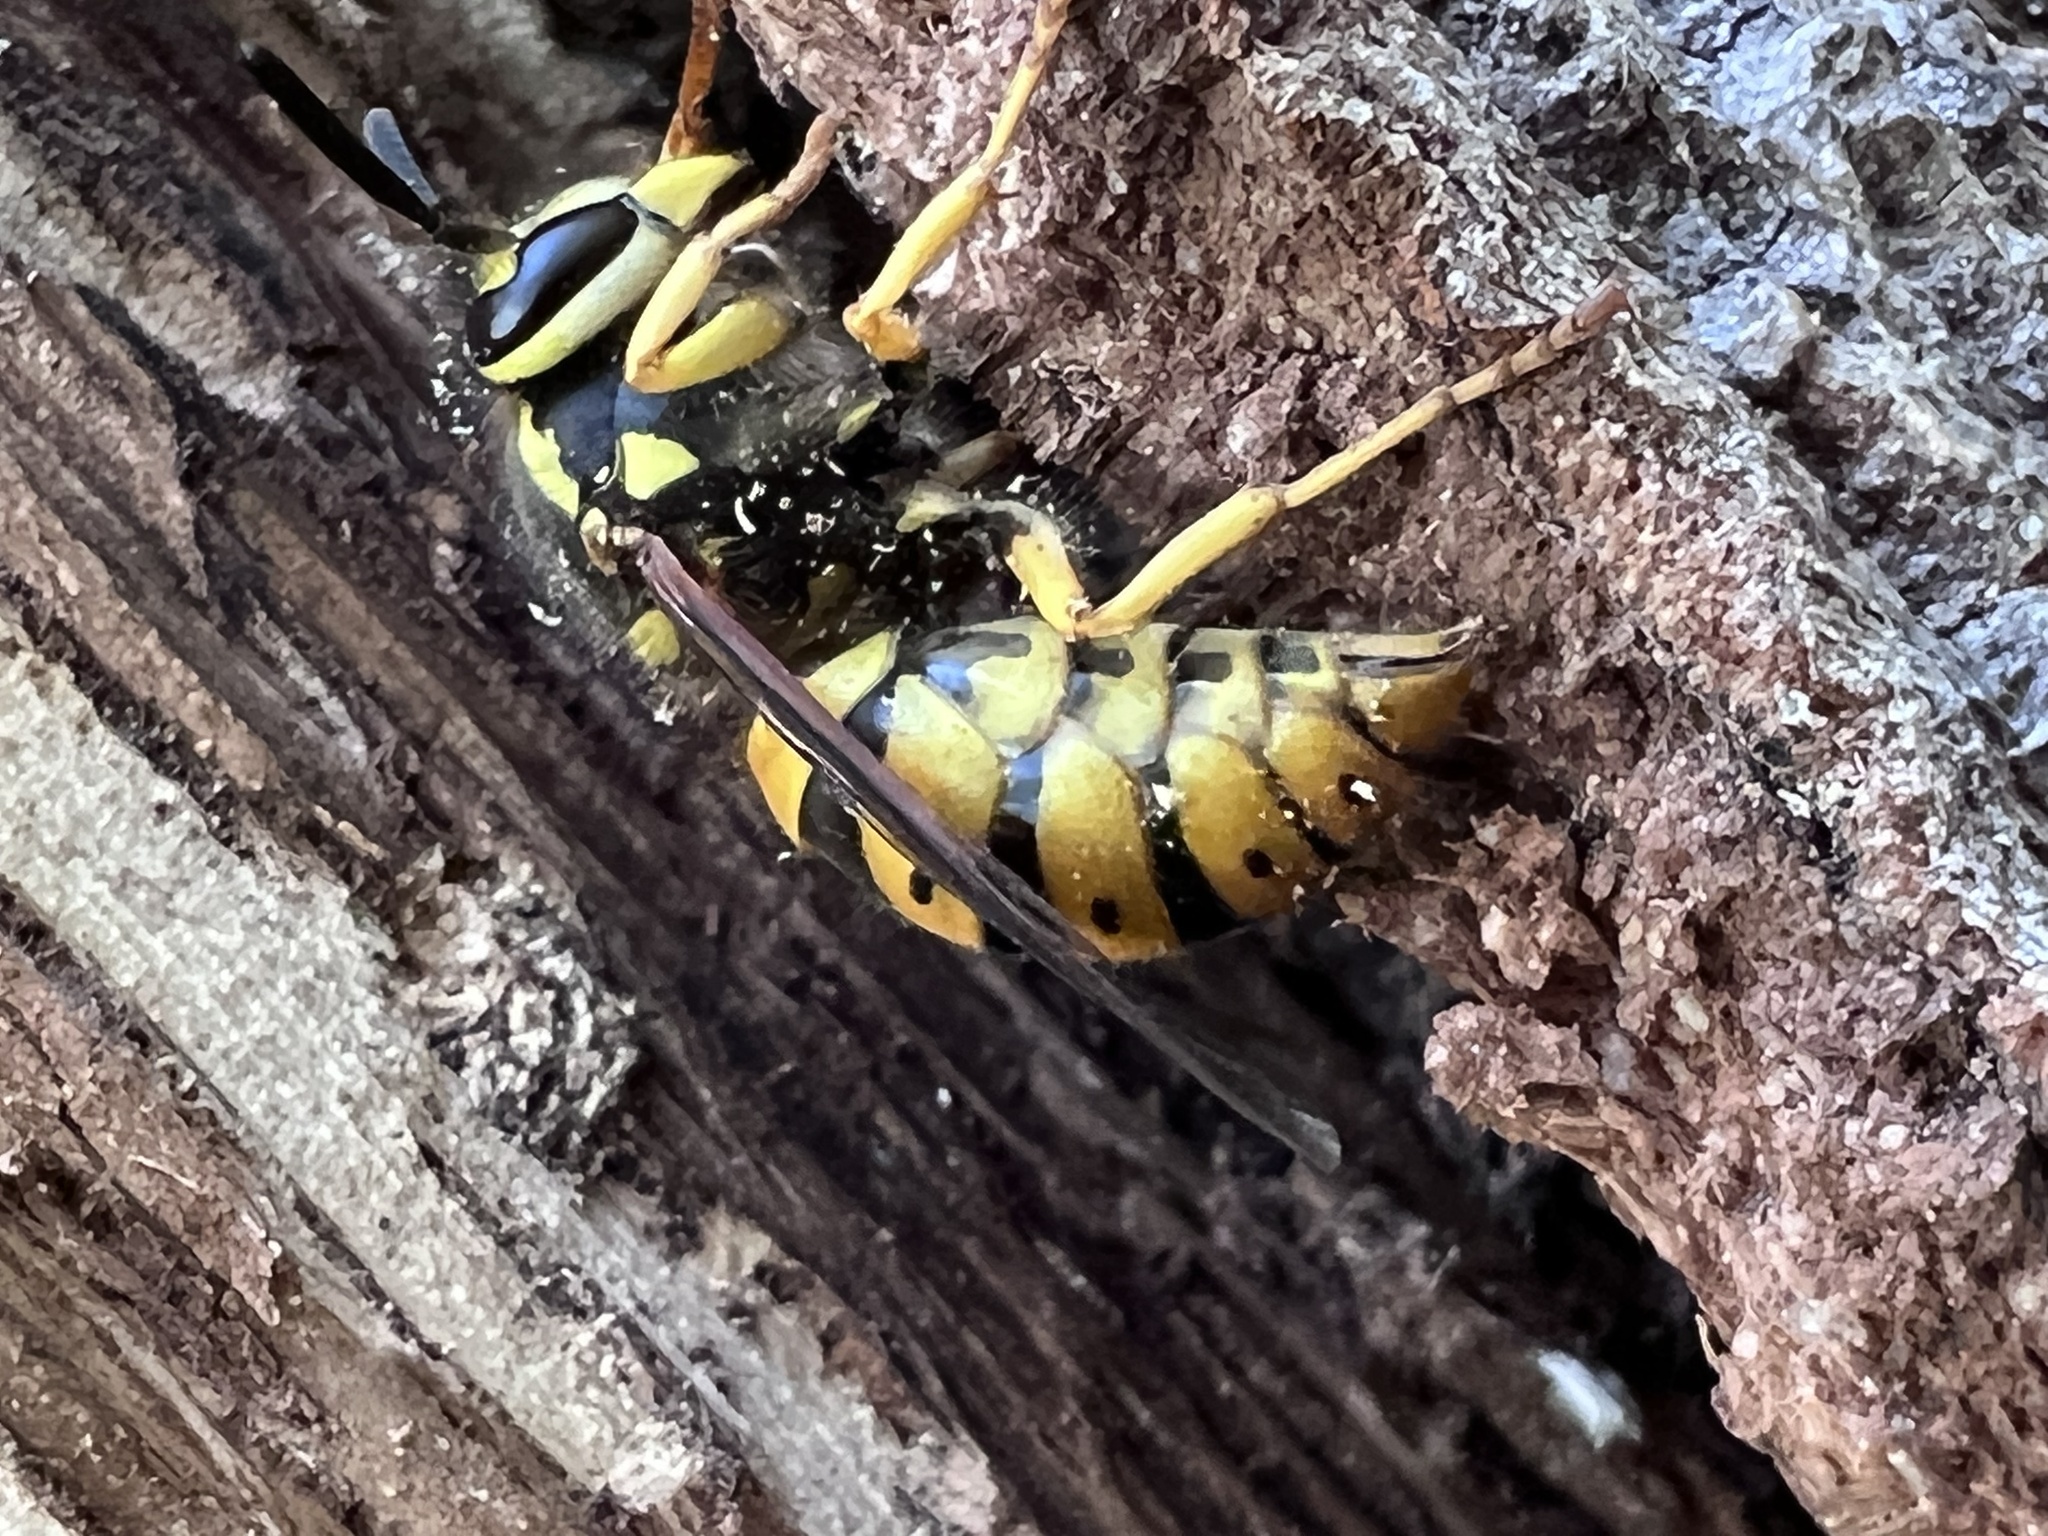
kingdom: Animalia
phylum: Arthropoda
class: Insecta
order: Hymenoptera
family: Vespidae
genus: Vespula
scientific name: Vespula squamosa
